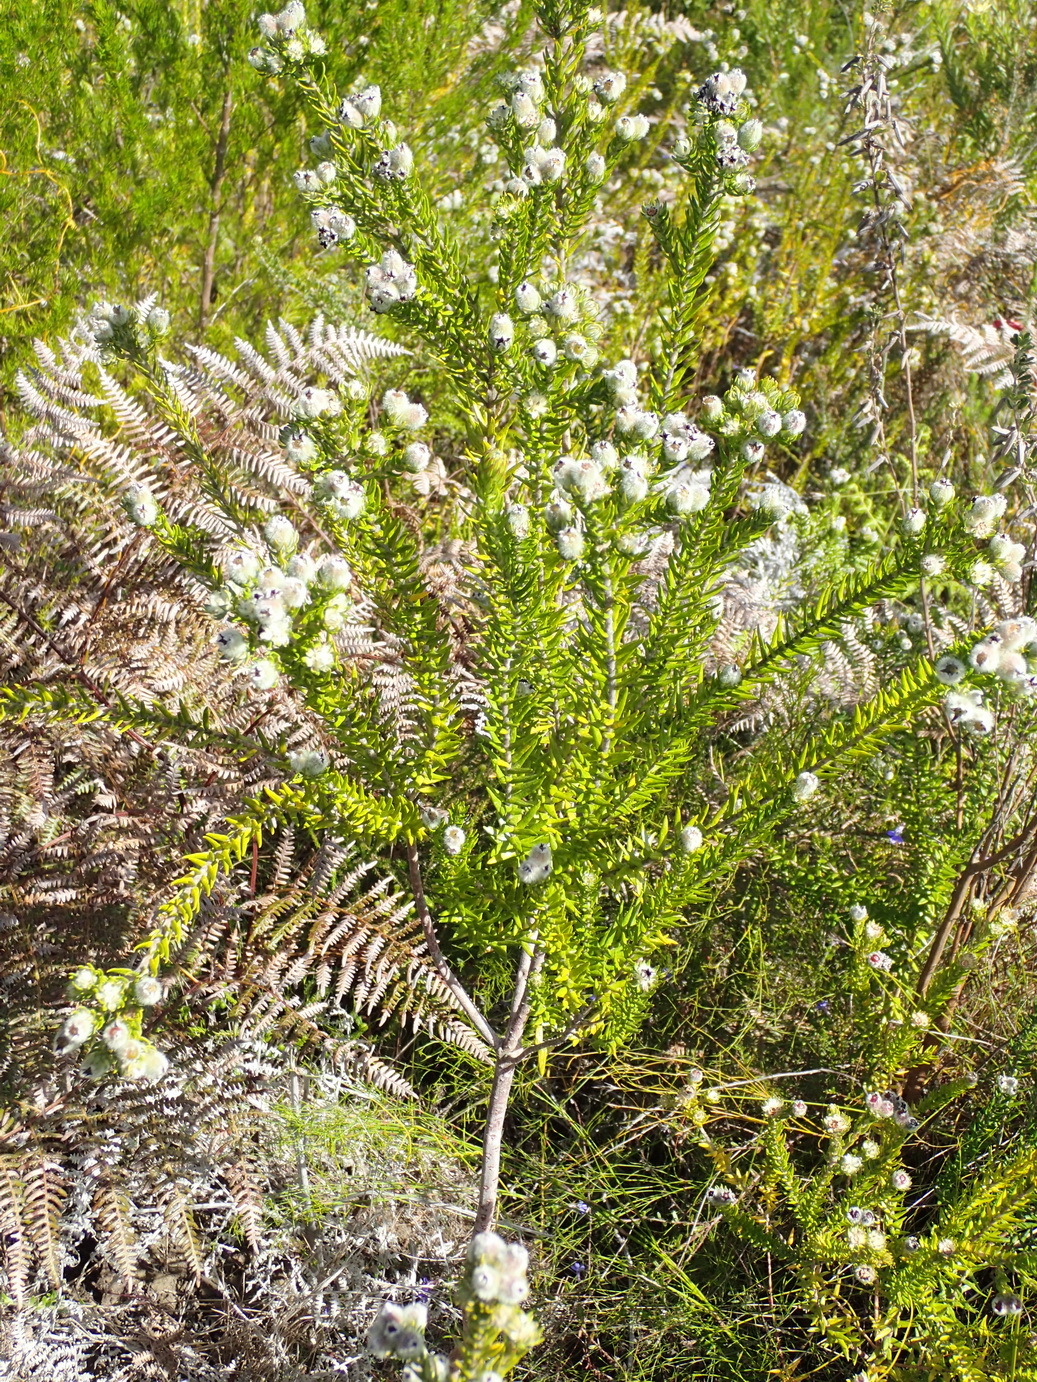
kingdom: Plantae
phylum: Tracheophyta
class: Magnoliopsida
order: Rosales
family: Rhamnaceae
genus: Phylica
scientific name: Phylica purpurea
